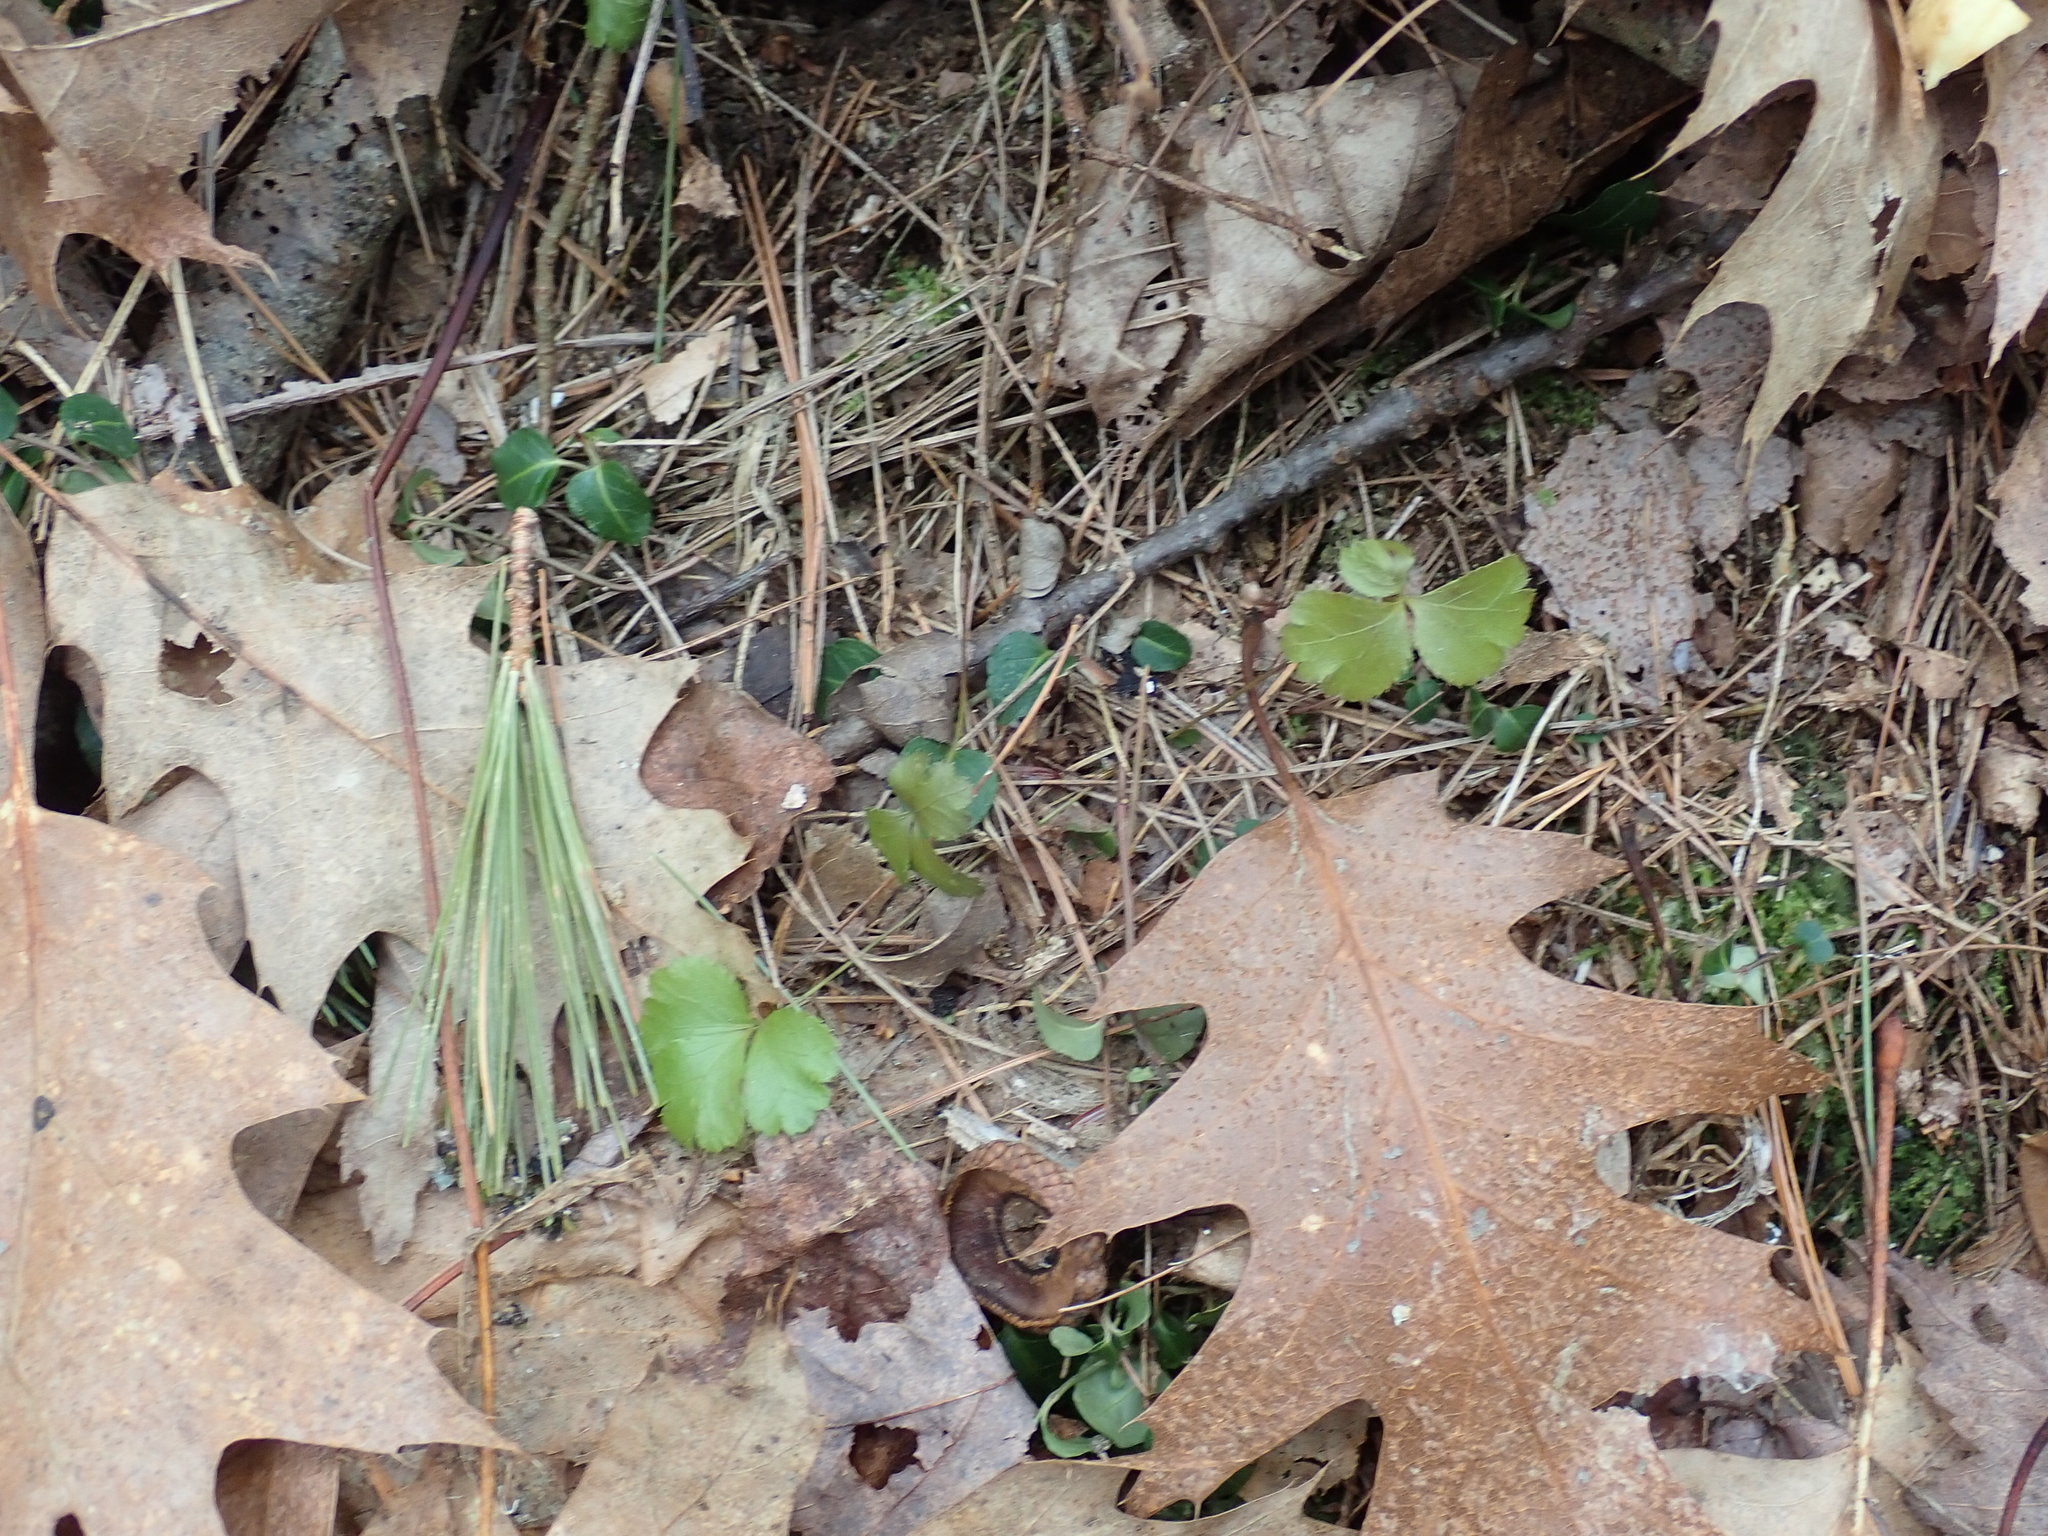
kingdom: Plantae
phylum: Tracheophyta
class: Magnoliopsida
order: Ranunculales
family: Ranunculaceae
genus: Coptis
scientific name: Coptis trifolia
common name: Canker-root
